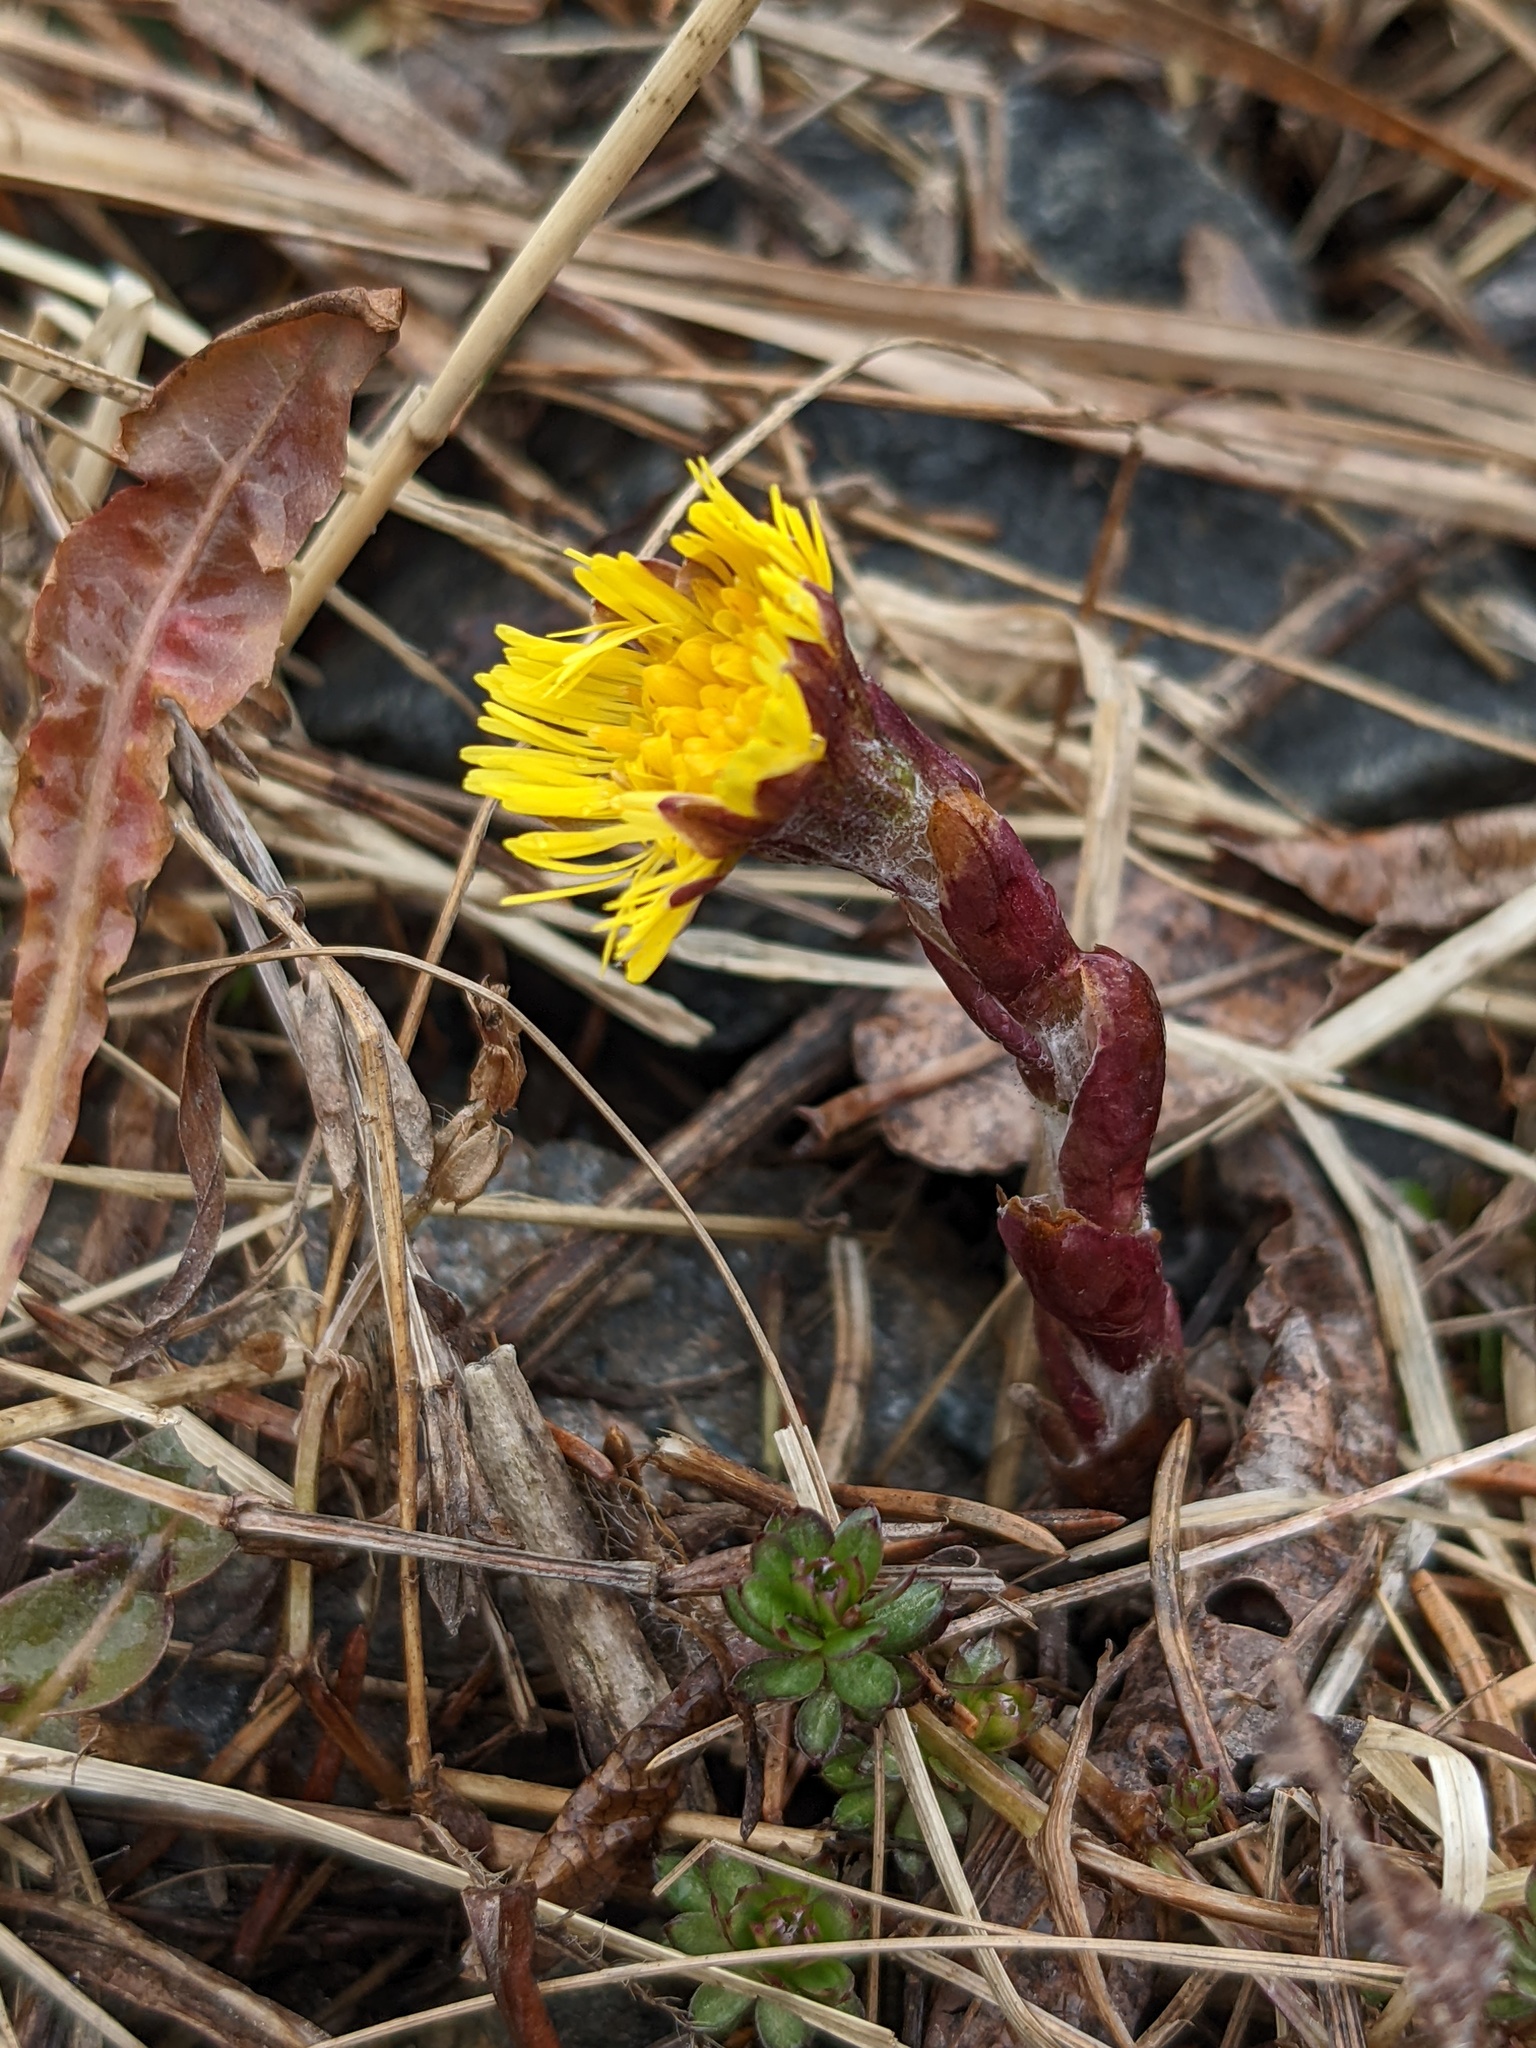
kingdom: Plantae
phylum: Tracheophyta
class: Magnoliopsida
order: Asterales
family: Asteraceae
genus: Tussilago
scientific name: Tussilago farfara
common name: Coltsfoot
